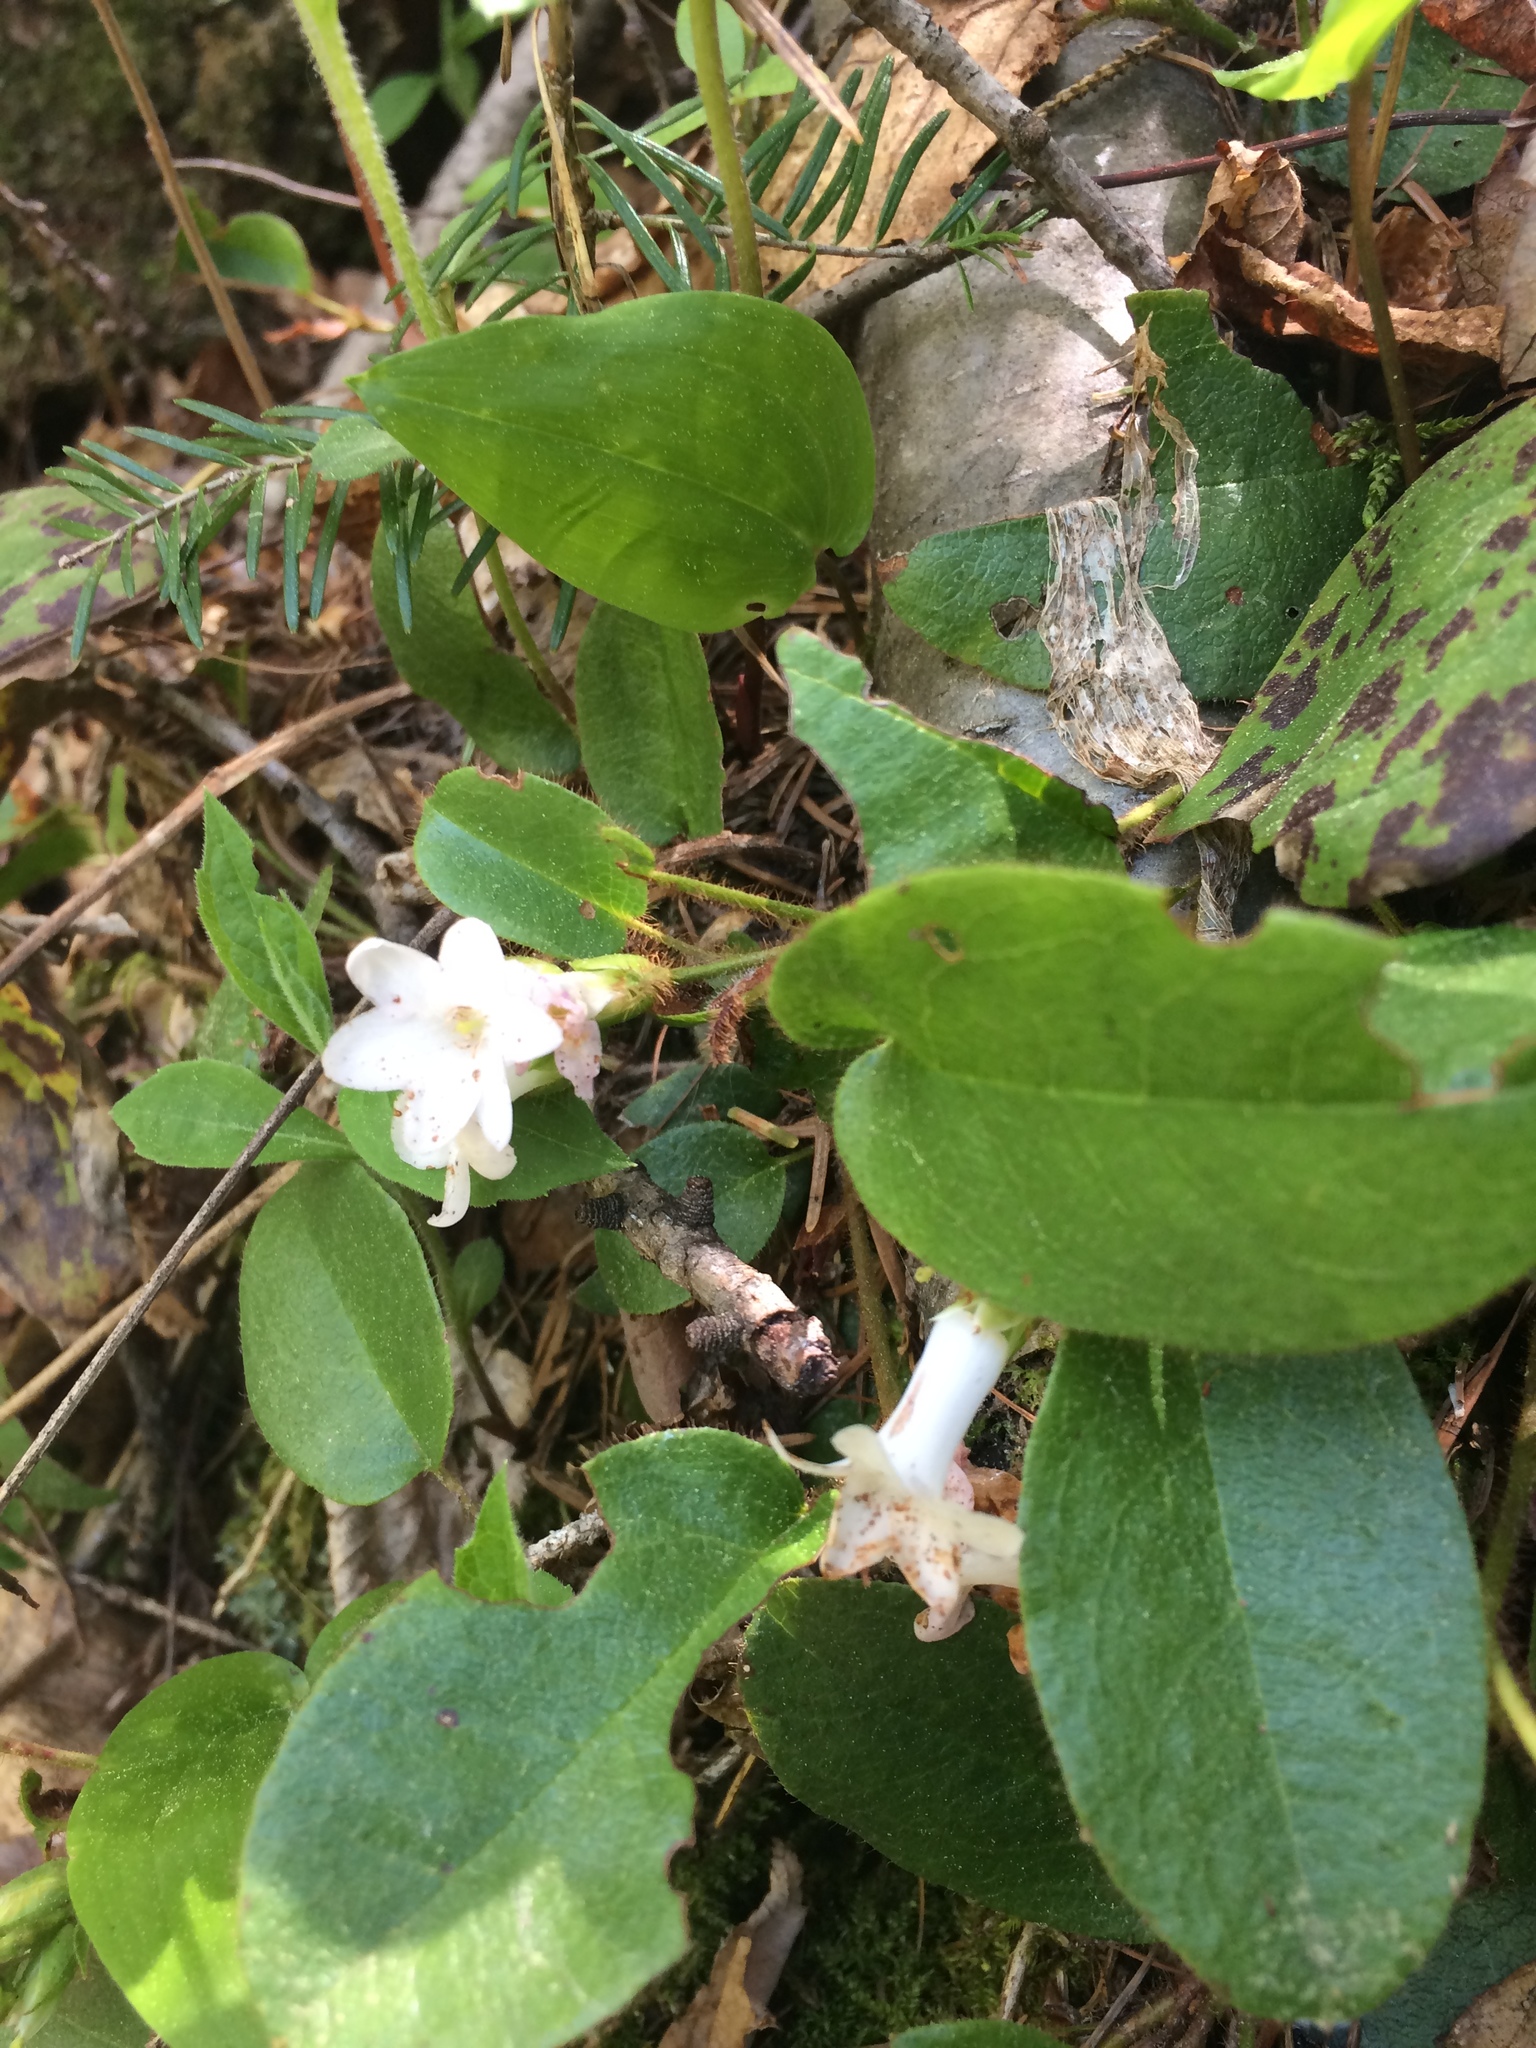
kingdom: Plantae
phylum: Tracheophyta
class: Magnoliopsida
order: Ericales
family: Ericaceae
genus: Epigaea
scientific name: Epigaea repens
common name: Gravelroot
